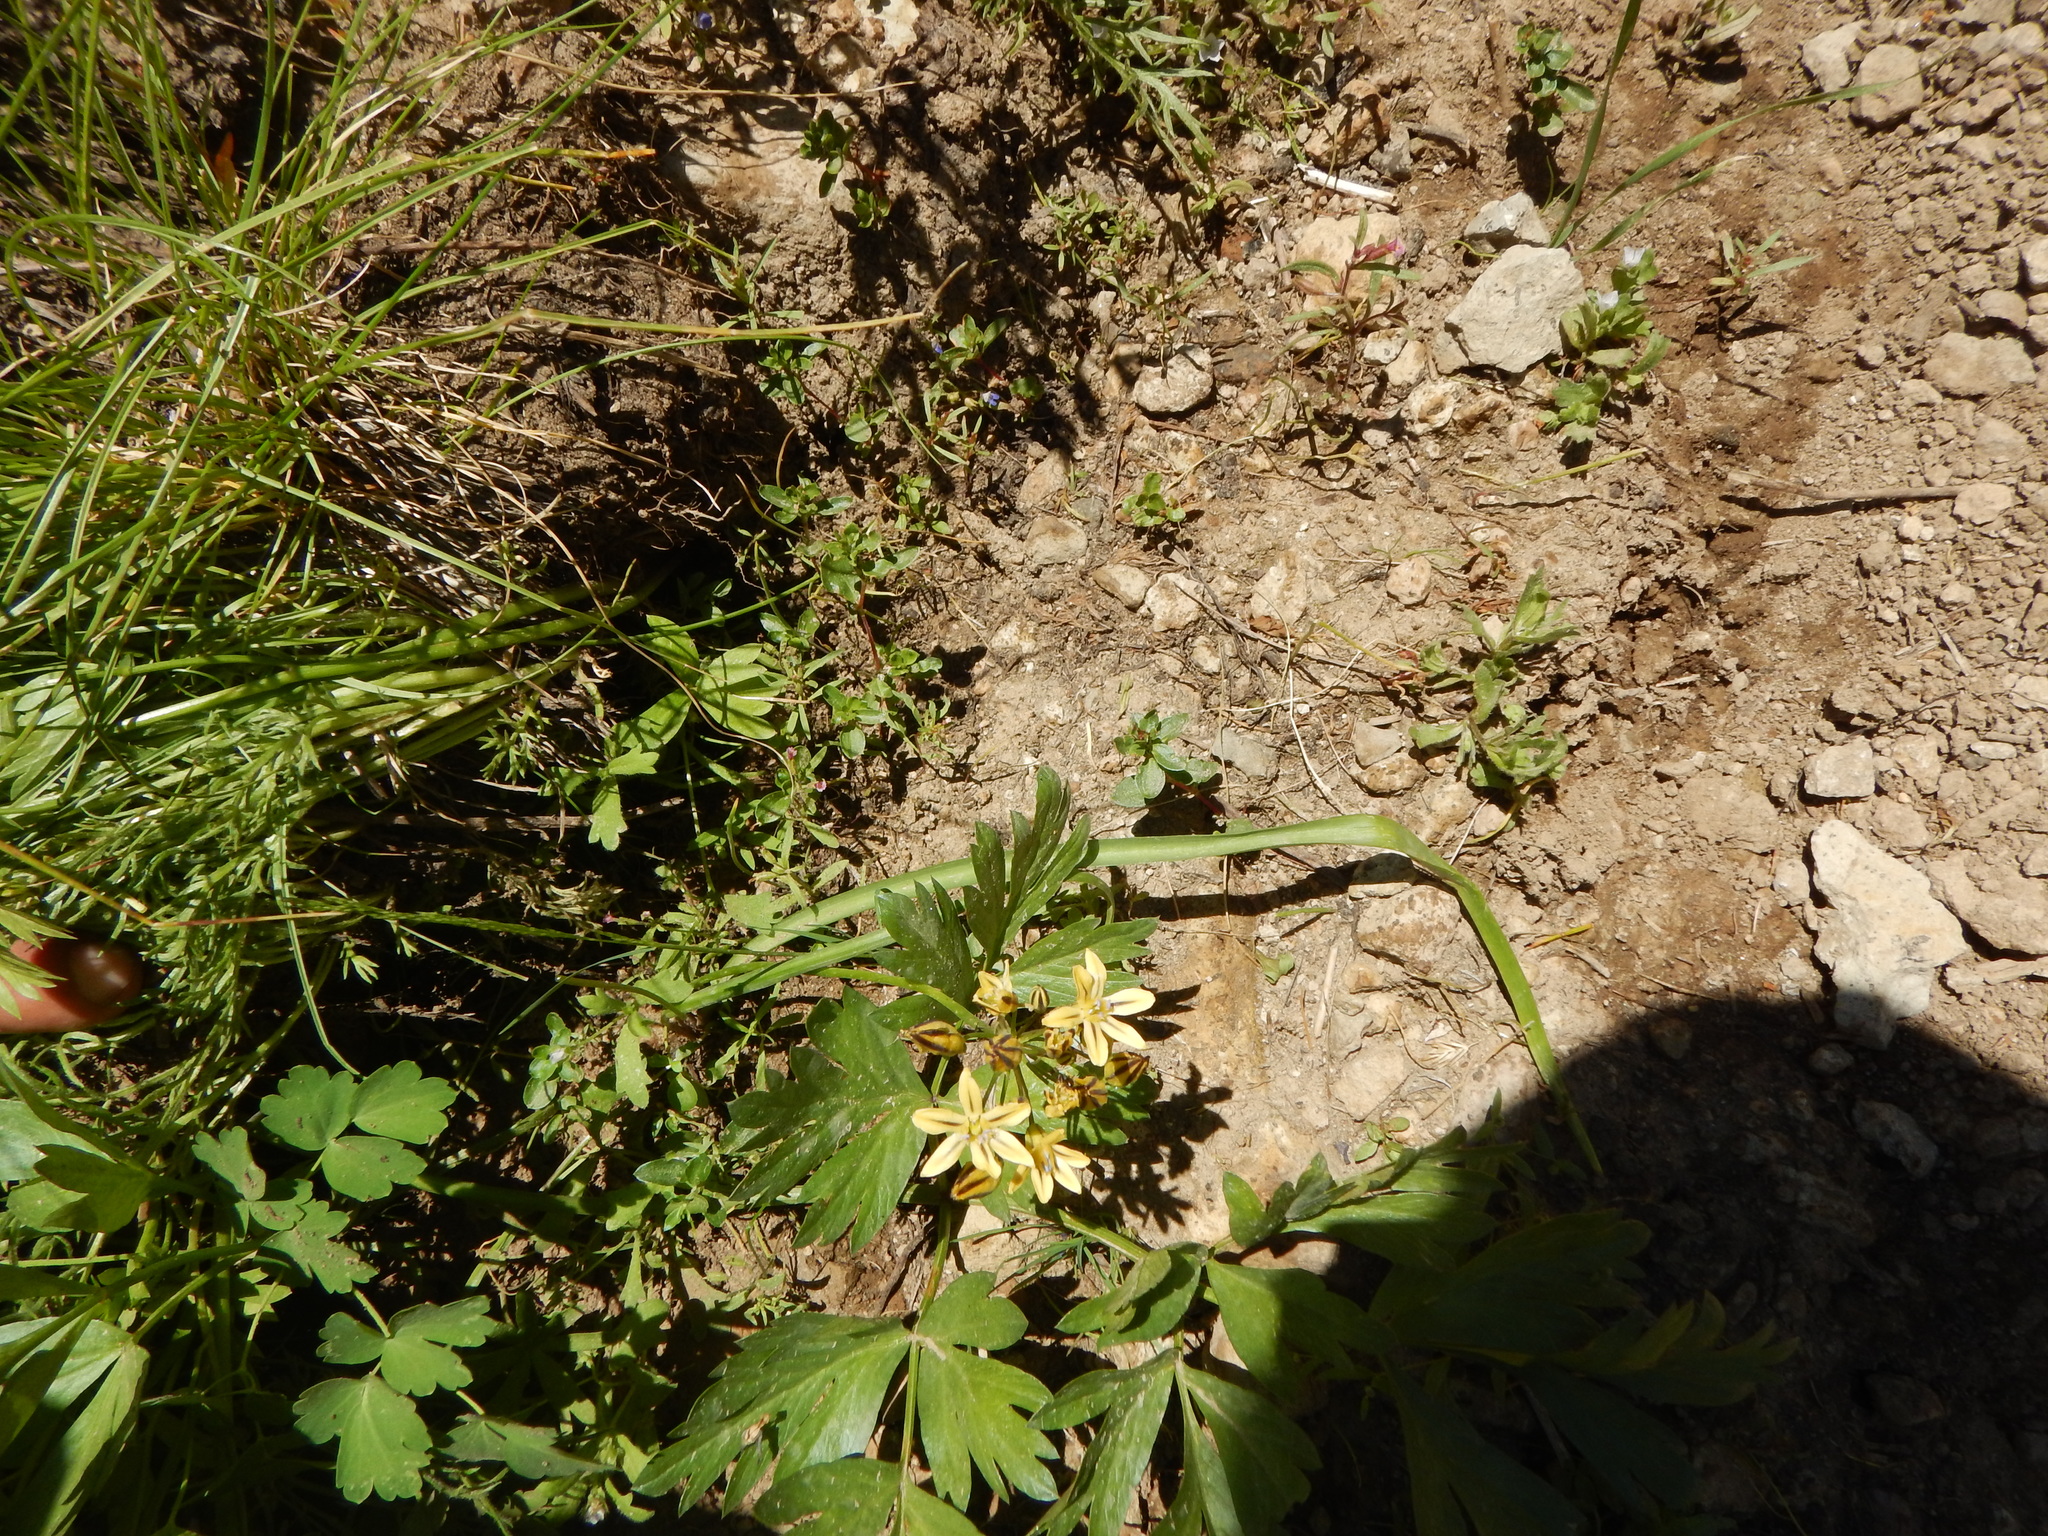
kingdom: Plantae
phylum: Tracheophyta
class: Liliopsida
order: Asparagales
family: Asparagaceae
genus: Triteleia
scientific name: Triteleia ixioides
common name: Yellow-brodiaea
